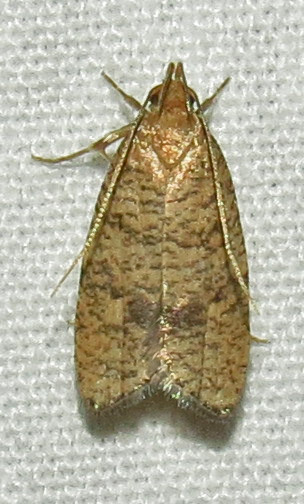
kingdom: Animalia
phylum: Arthropoda
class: Insecta
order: Lepidoptera
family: Depressariidae
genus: Psilocorsis
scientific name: Psilocorsis quercicella
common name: Oak leaftier moth
